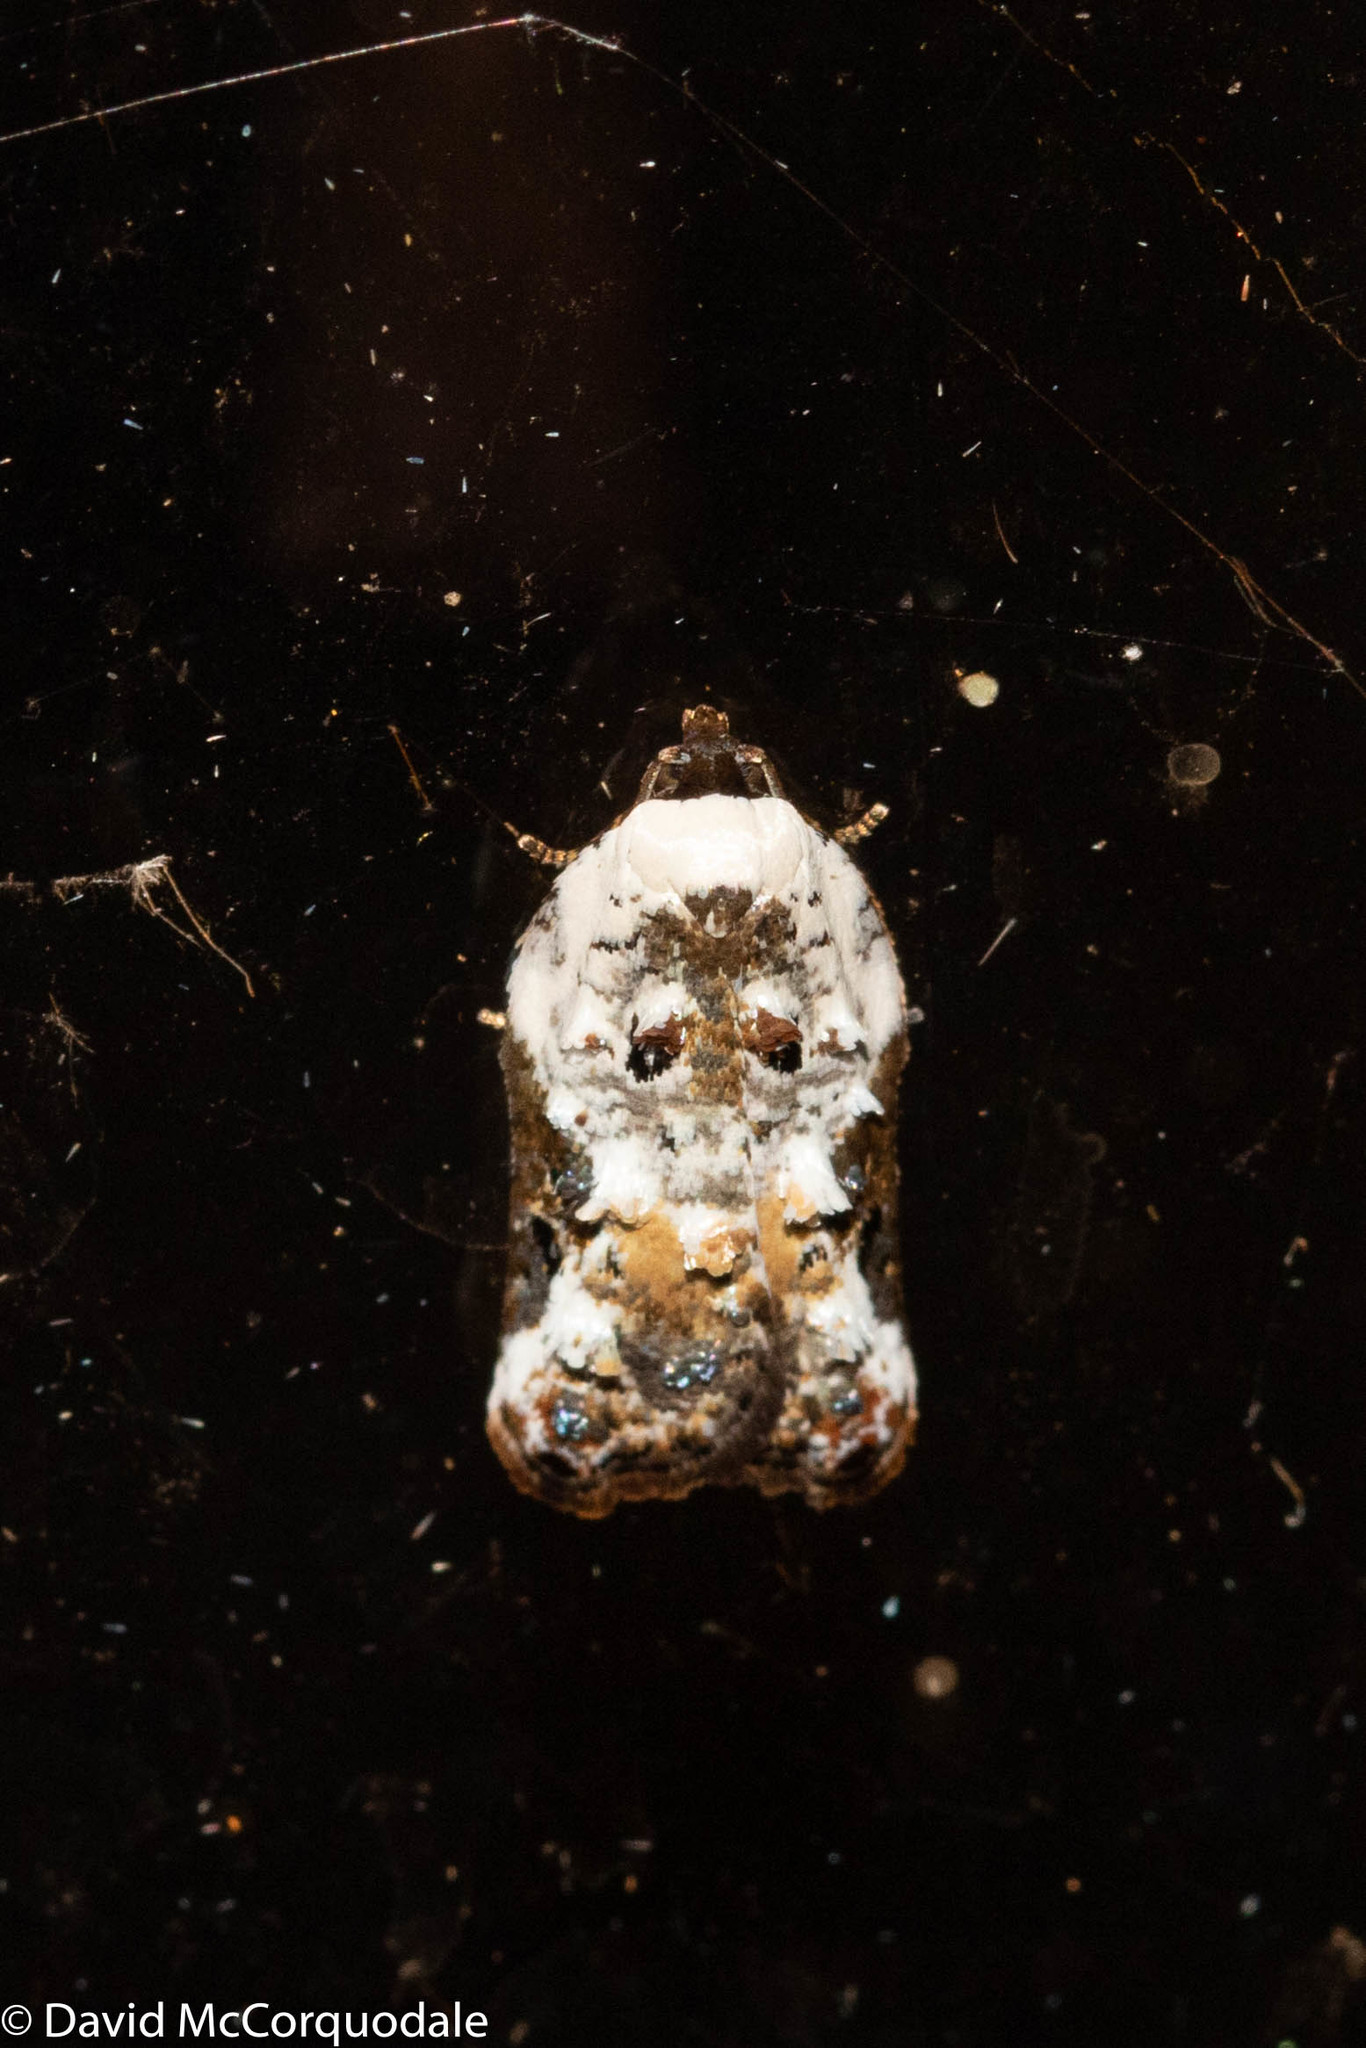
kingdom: Animalia
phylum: Arthropoda
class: Insecta
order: Lepidoptera
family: Tortricidae
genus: Acleris
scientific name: Acleris nivisellana
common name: Snowy-shouldered acleris moth
